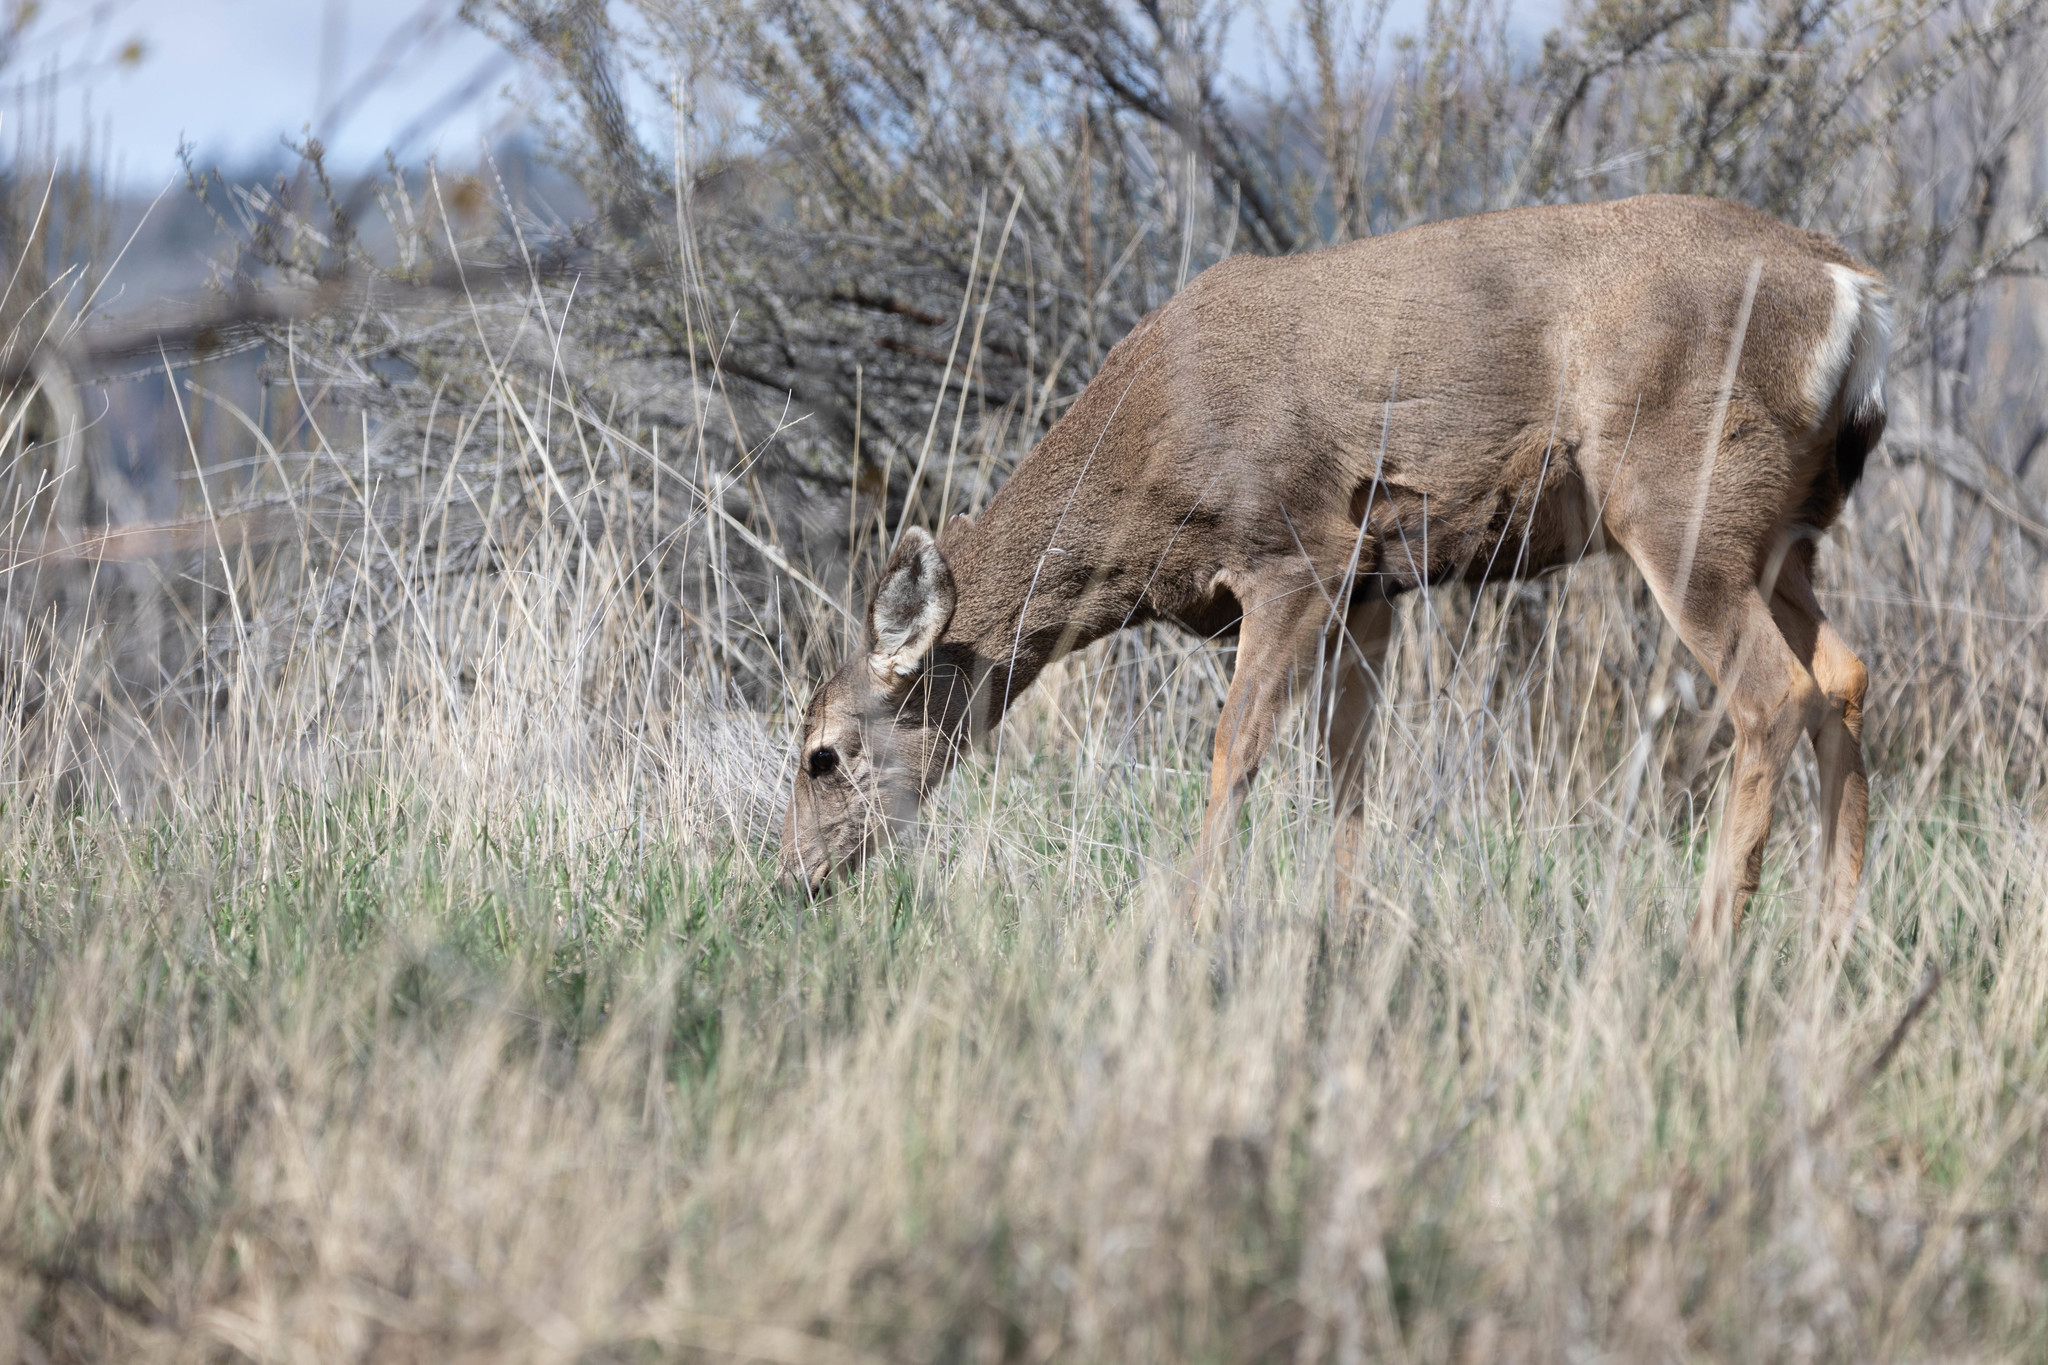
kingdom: Animalia
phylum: Chordata
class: Mammalia
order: Artiodactyla
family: Cervidae
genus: Odocoileus
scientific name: Odocoileus hemionus
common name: Mule deer
